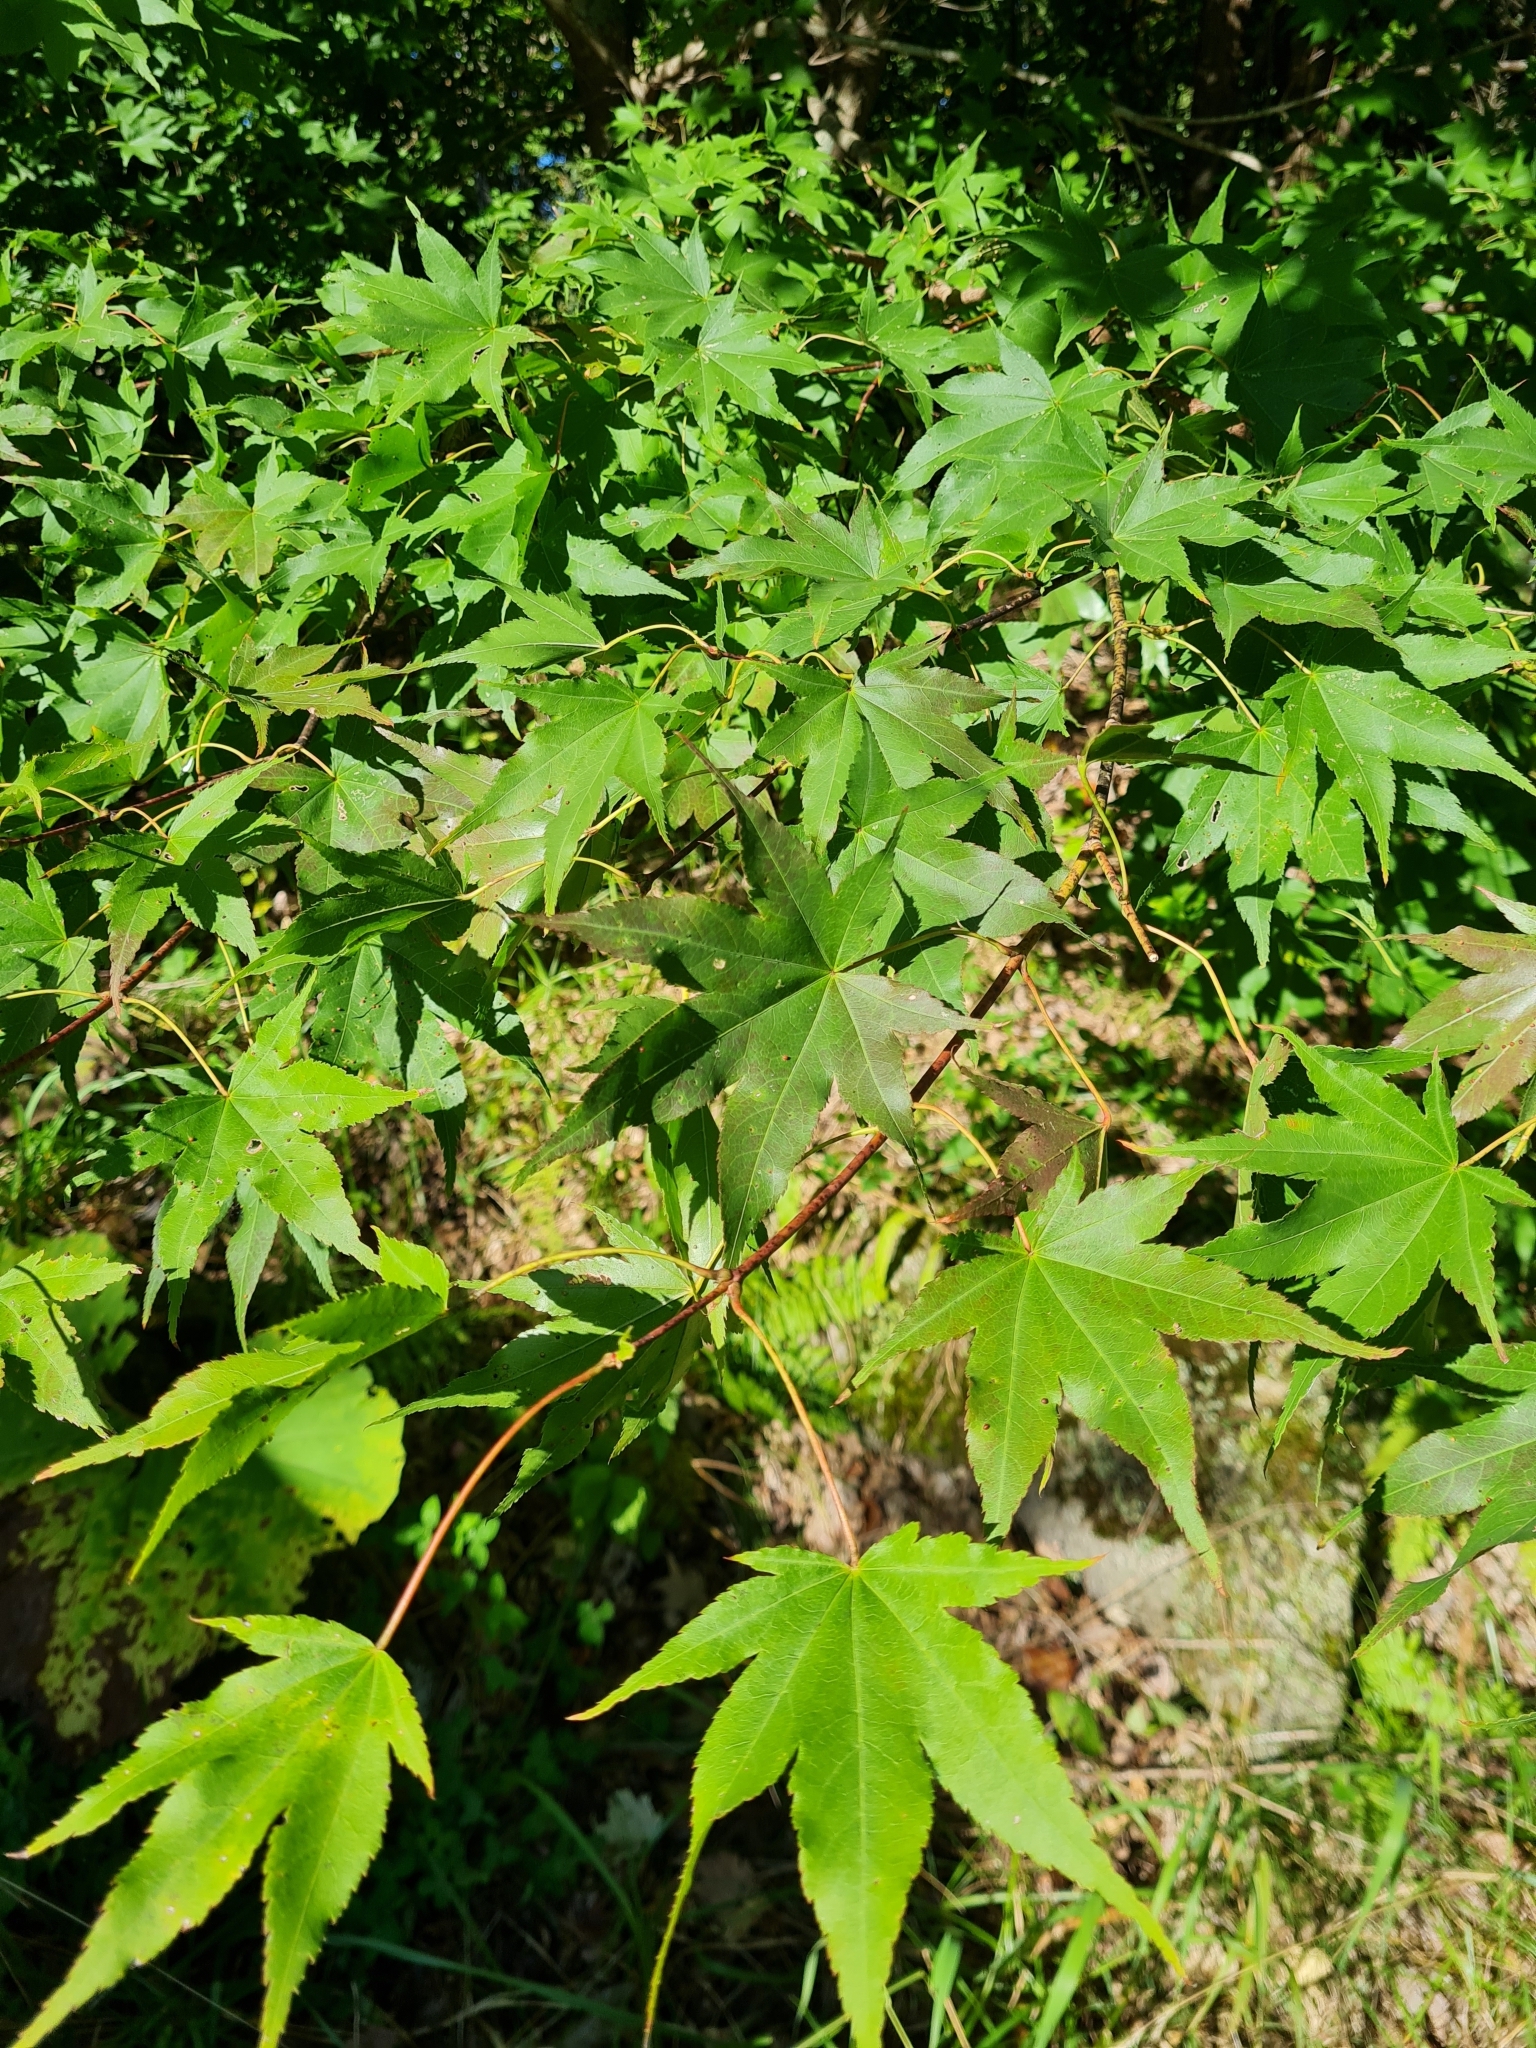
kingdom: Plantae
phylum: Tracheophyta
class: Magnoliopsida
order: Sapindales
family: Sapindaceae
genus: Acer
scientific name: Acer palmatum
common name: Japanese maple
